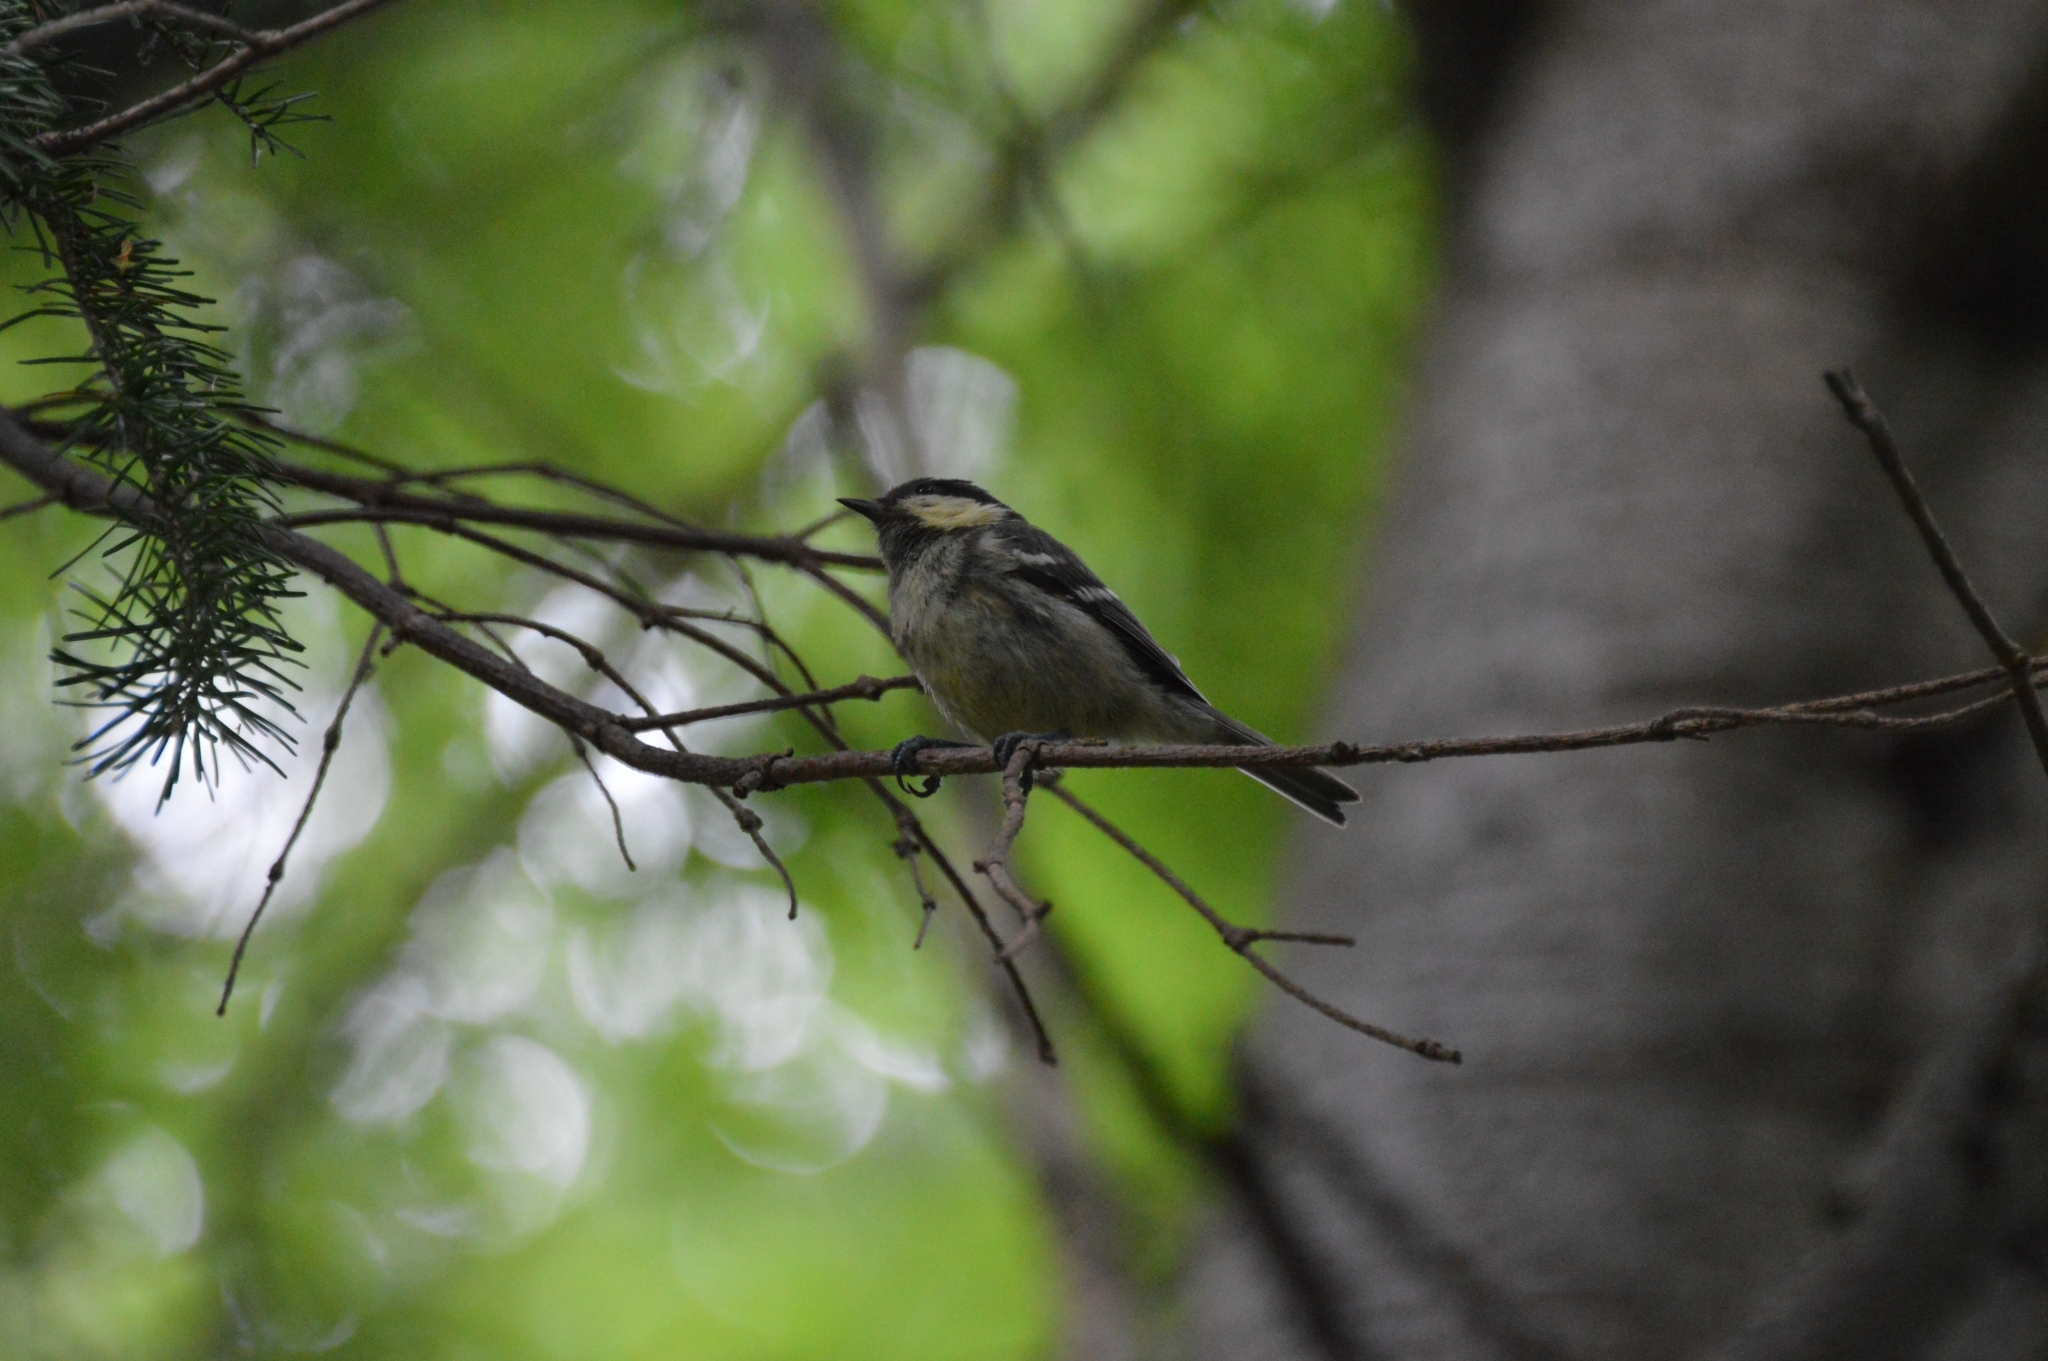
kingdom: Animalia
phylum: Chordata
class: Aves
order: Passeriformes
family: Paridae
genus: Periparus
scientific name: Periparus ater
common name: Coal tit
